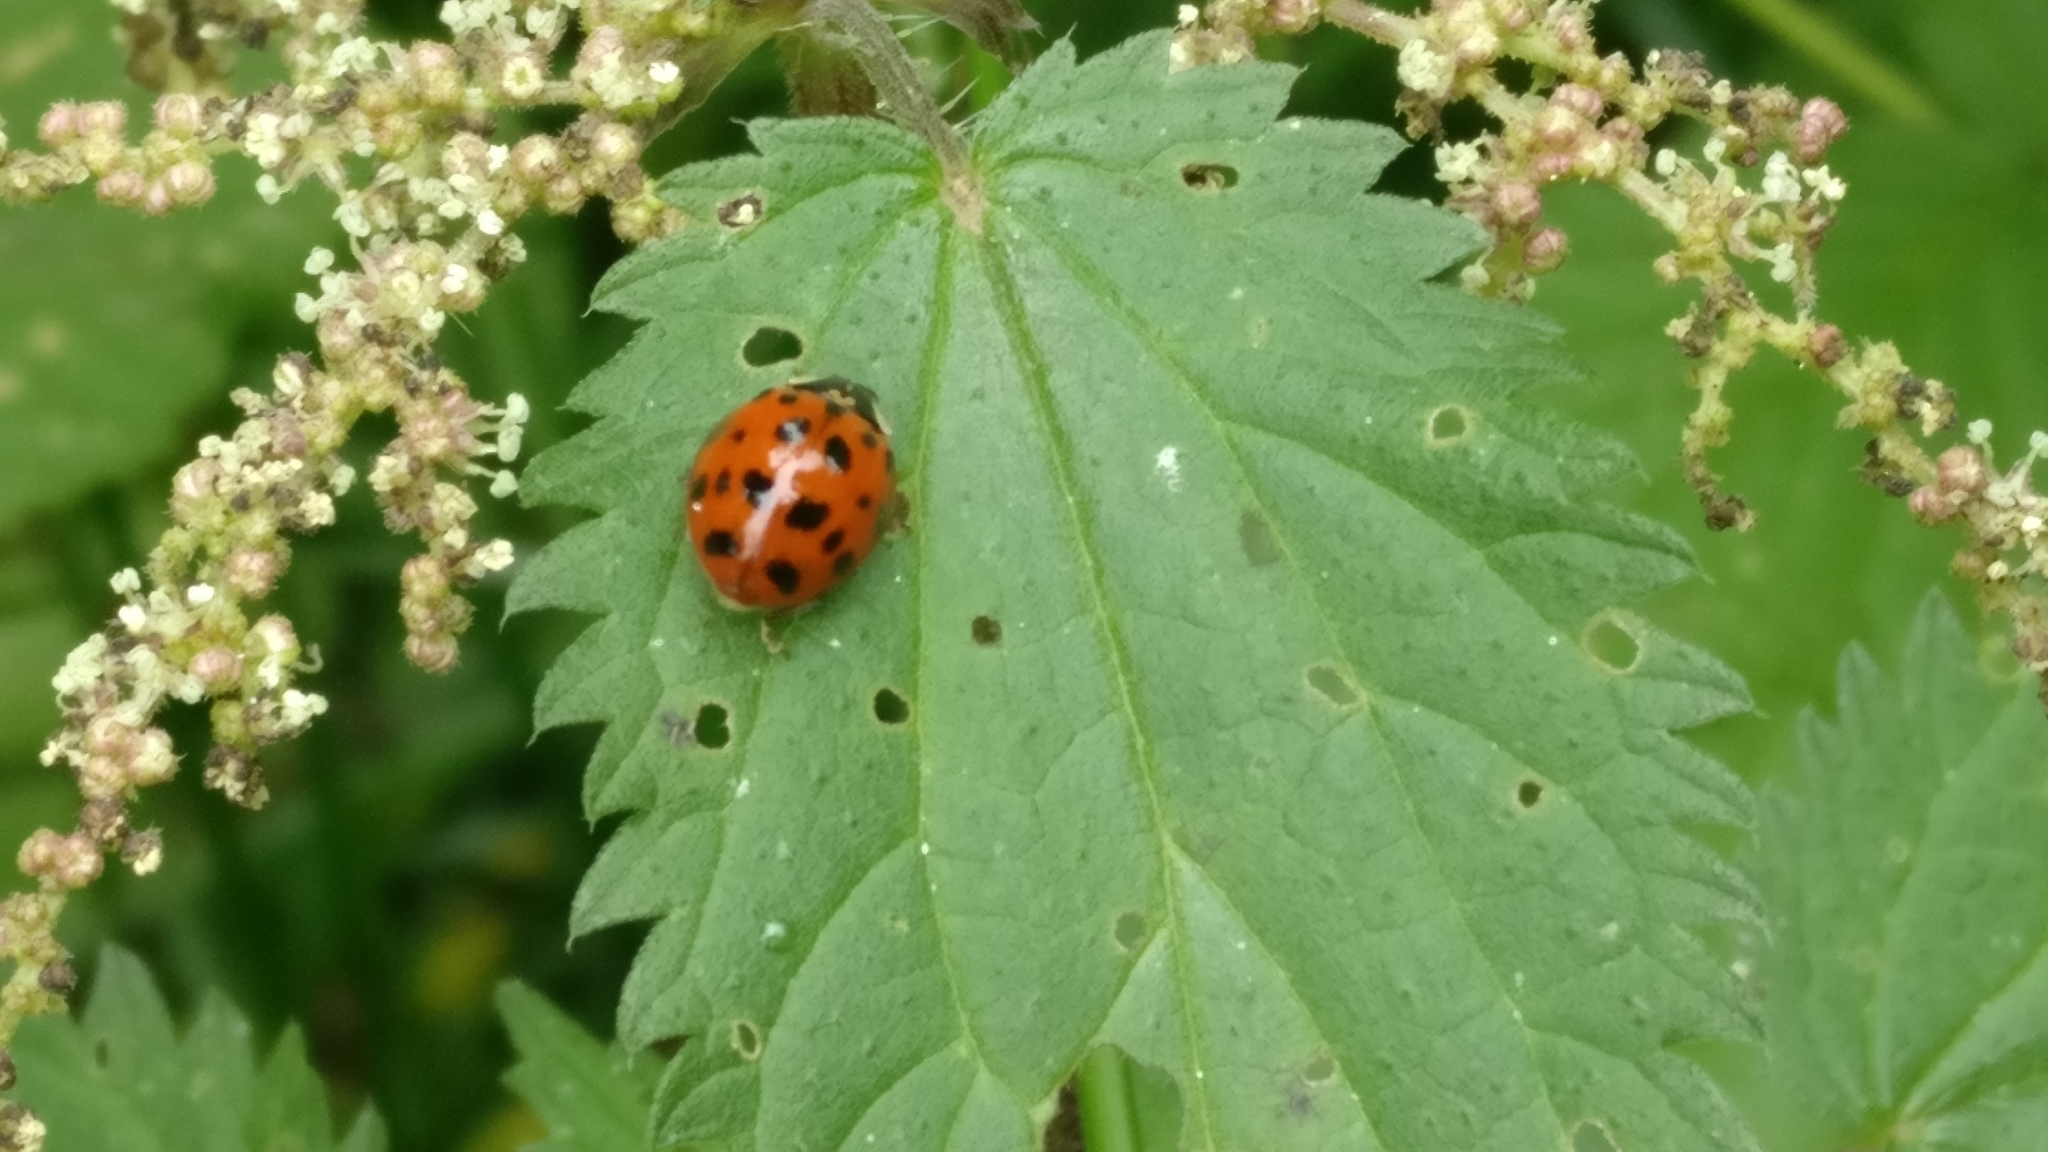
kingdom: Animalia
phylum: Arthropoda
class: Insecta
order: Coleoptera
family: Coccinellidae
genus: Harmonia
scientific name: Harmonia axyridis
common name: Harlequin ladybird
